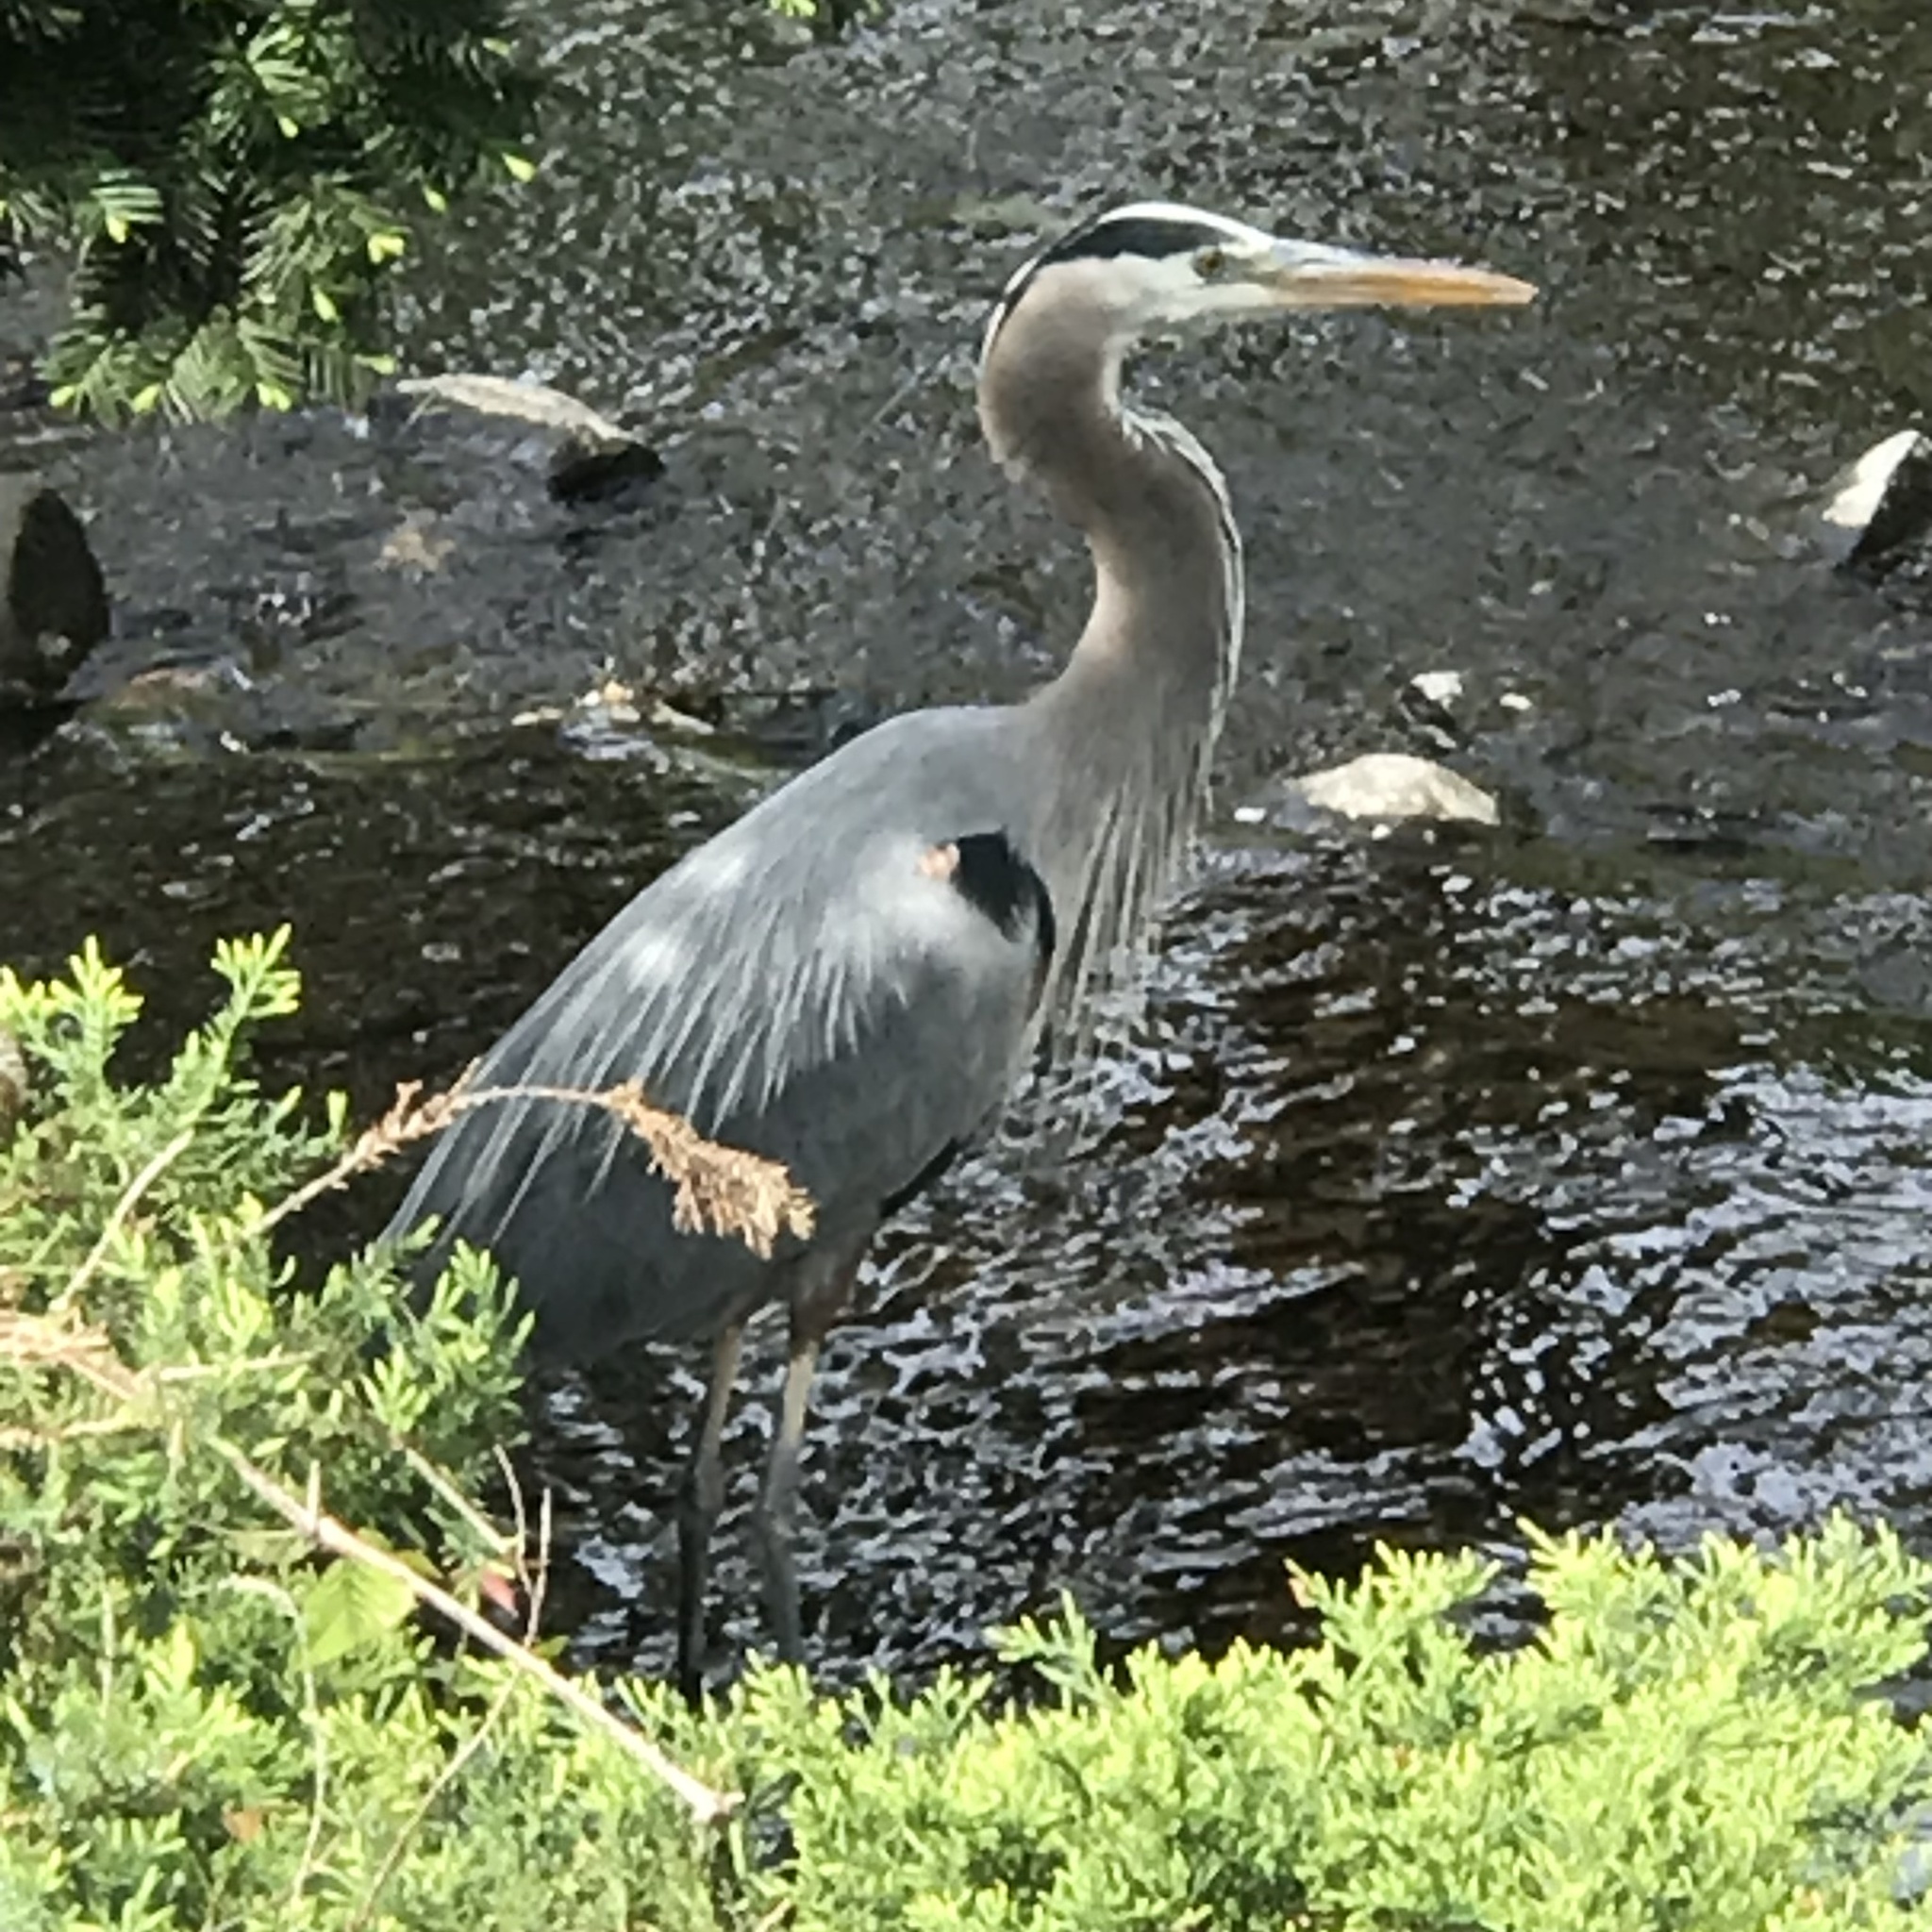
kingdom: Animalia
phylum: Chordata
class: Aves
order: Pelecaniformes
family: Ardeidae
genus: Ardea
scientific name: Ardea herodias
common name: Great blue heron
